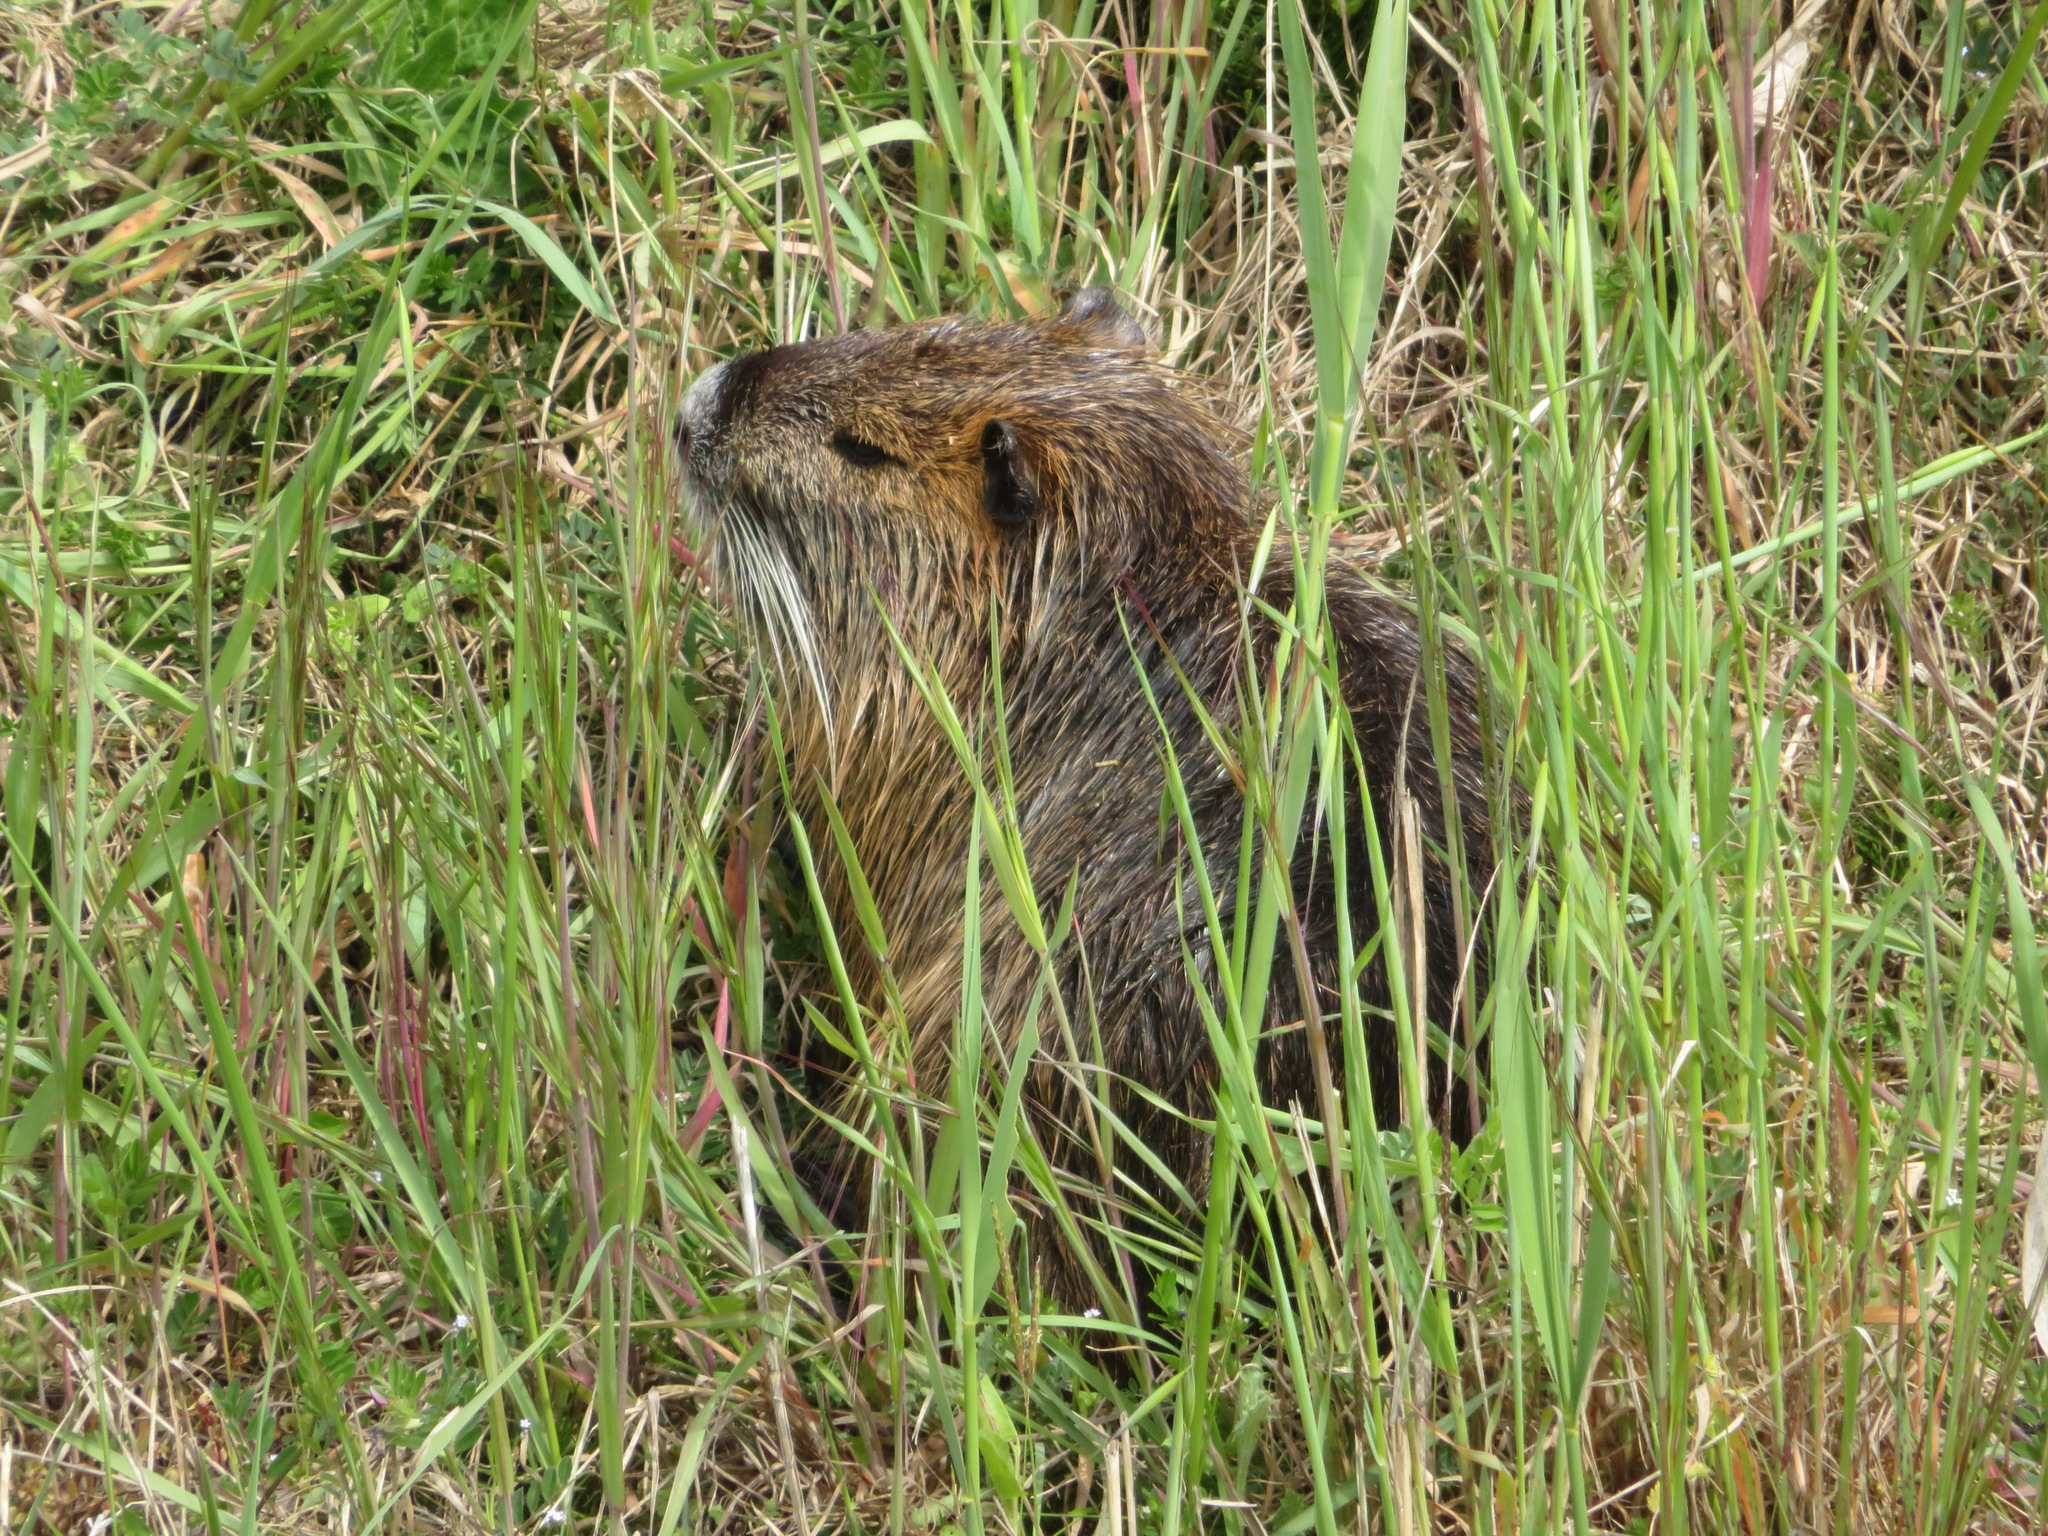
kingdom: Animalia
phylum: Chordata
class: Mammalia
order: Rodentia
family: Myocastoridae
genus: Myocastor
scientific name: Myocastor coypus
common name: Coypu
